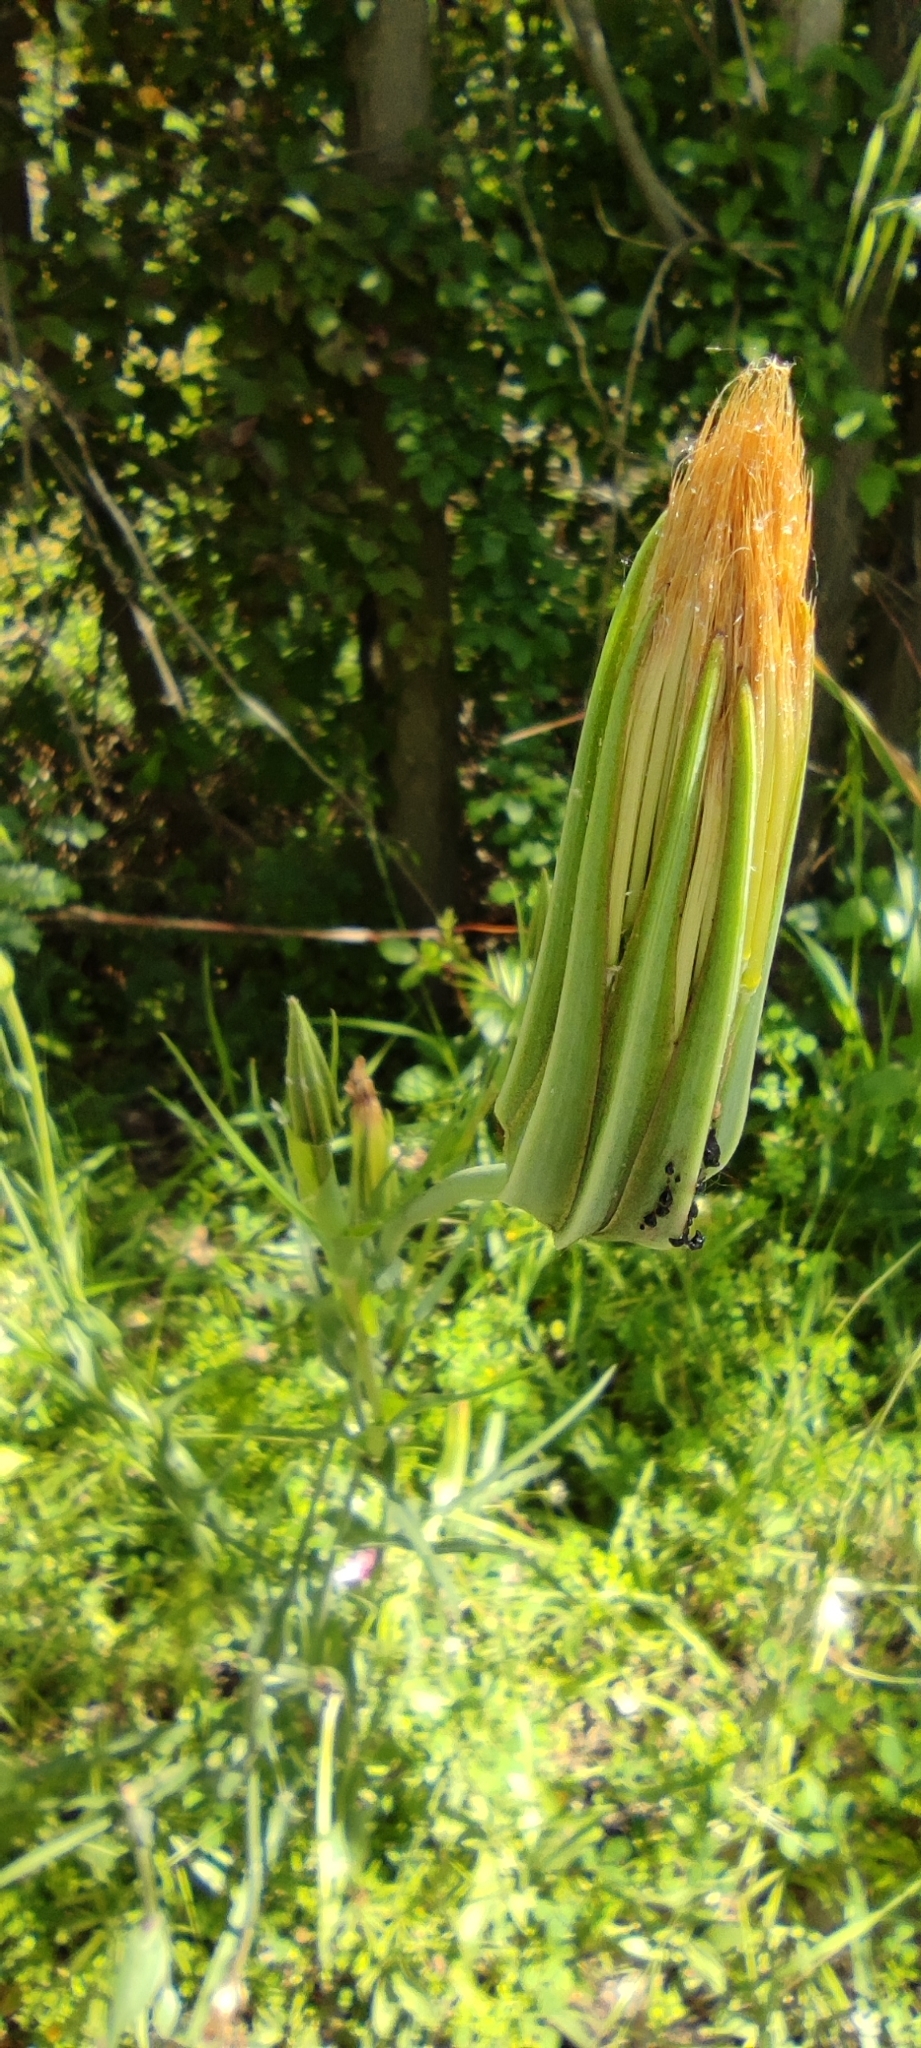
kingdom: Plantae
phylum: Tracheophyta
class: Magnoliopsida
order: Asterales
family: Asteraceae
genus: Tragopogon
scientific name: Tragopogon porrifolius
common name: Salsify
